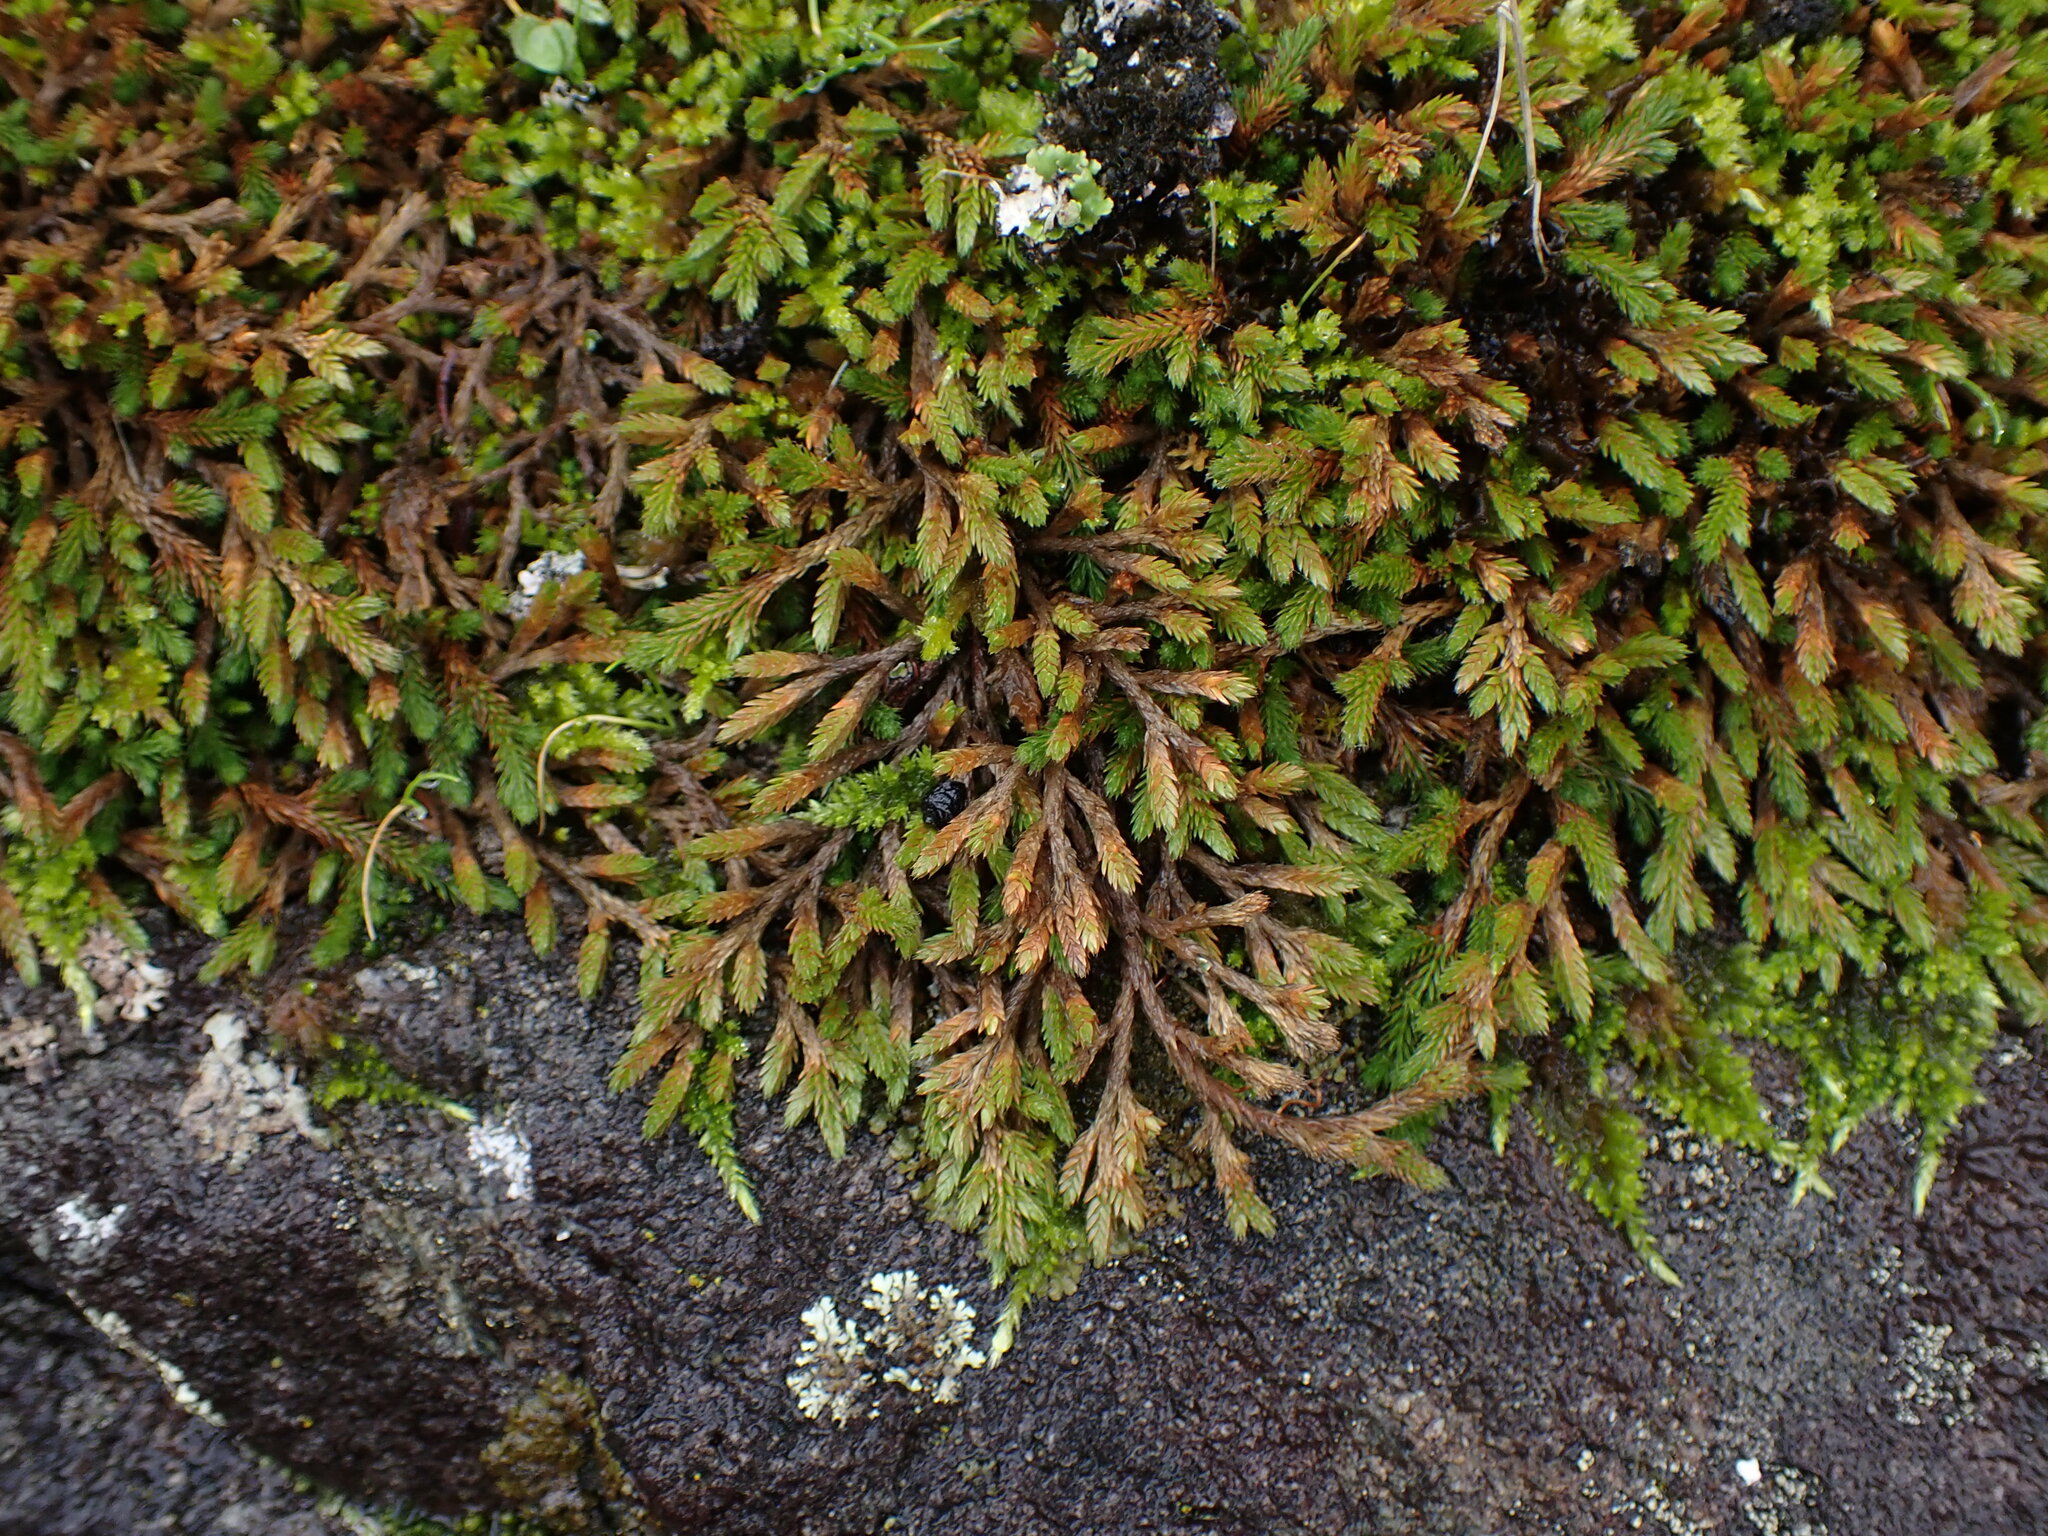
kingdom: Plantae
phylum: Tracheophyta
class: Lycopodiopsida
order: Selaginellales
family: Selaginellaceae
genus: Selaginella
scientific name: Selaginella wallacei
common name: Wallace's selaginella
